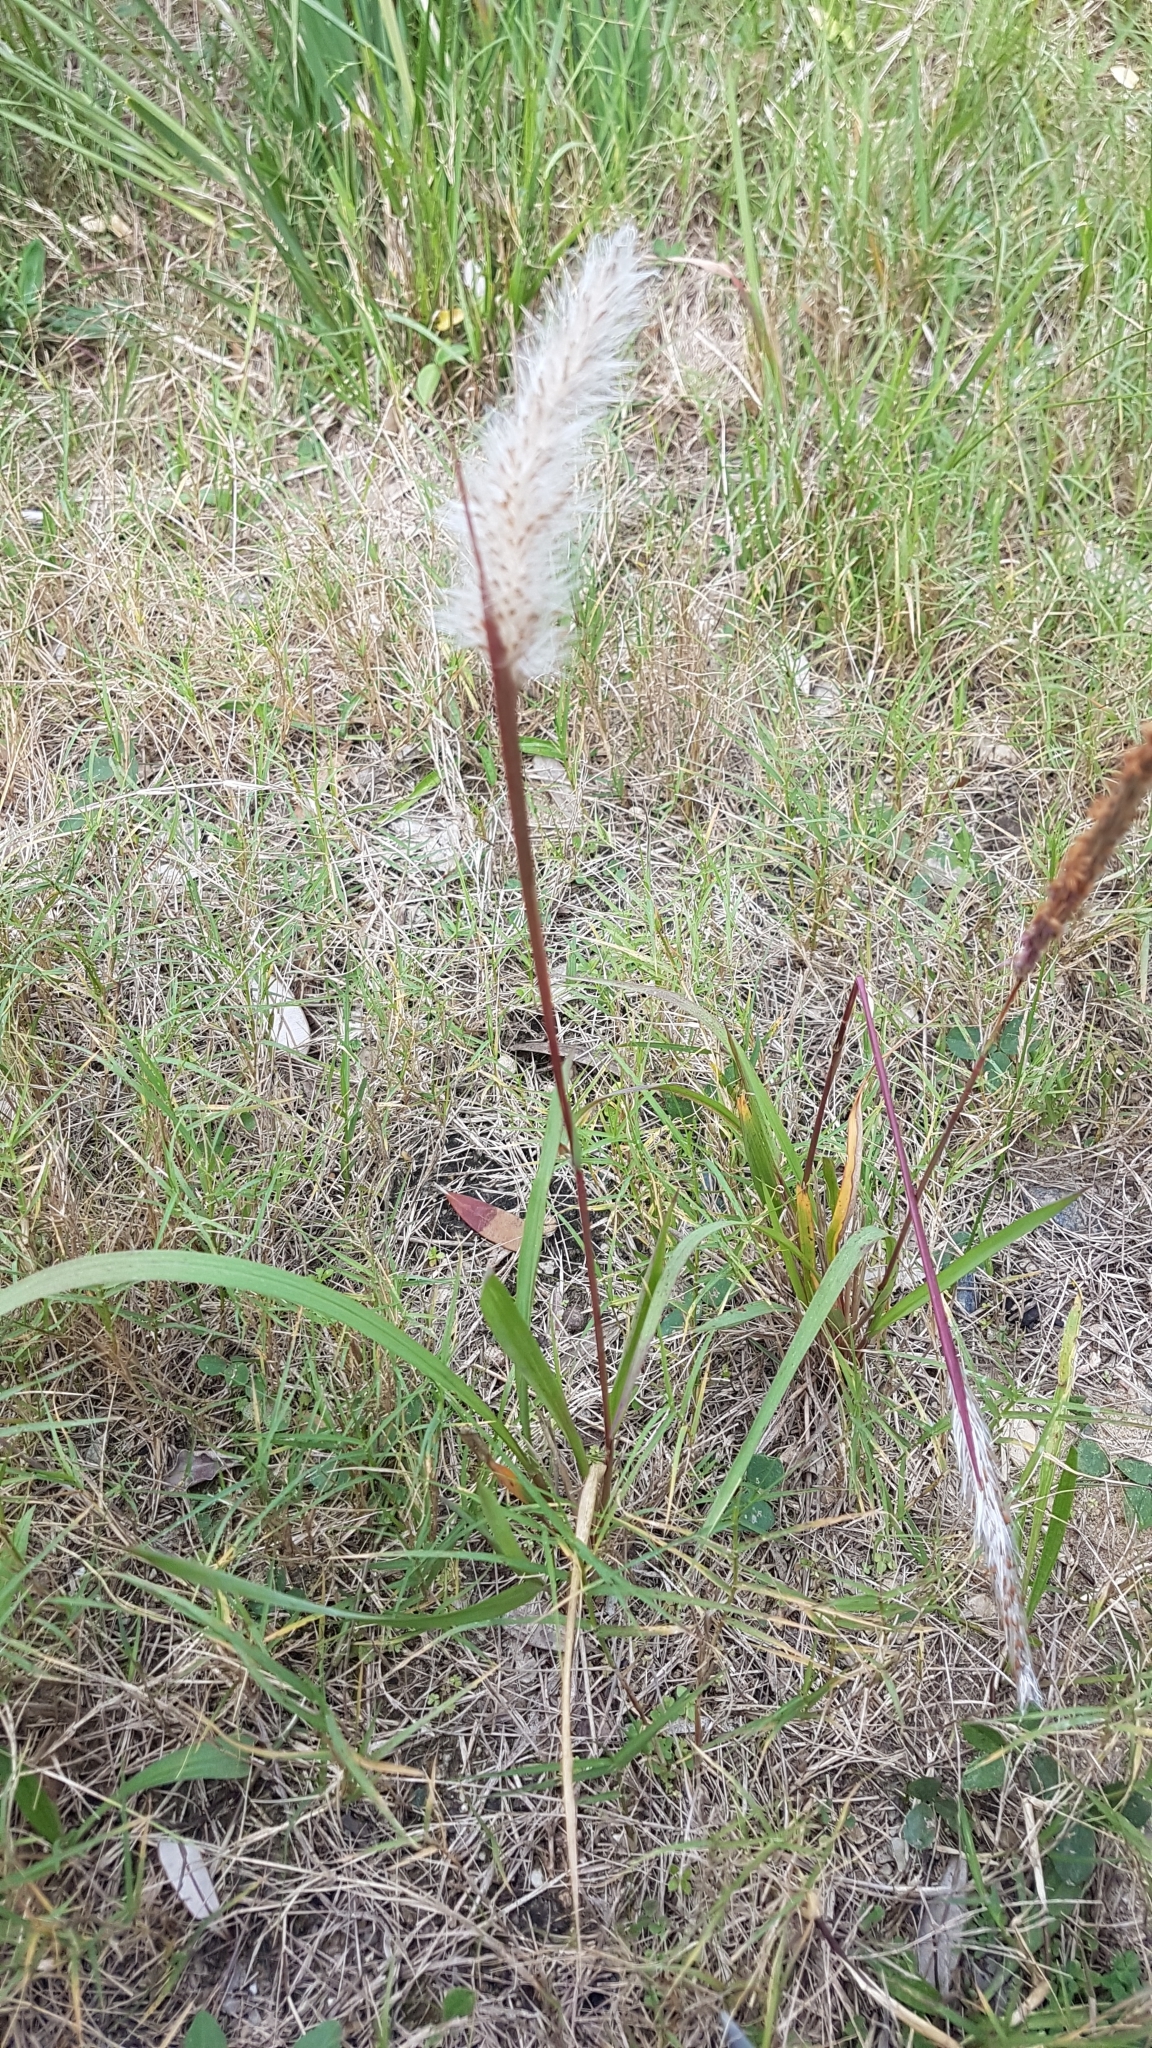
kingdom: Plantae
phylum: Tracheophyta
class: Liliopsida
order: Poales
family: Poaceae
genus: Imperata
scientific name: Imperata cylindrica
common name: Cogongrass
